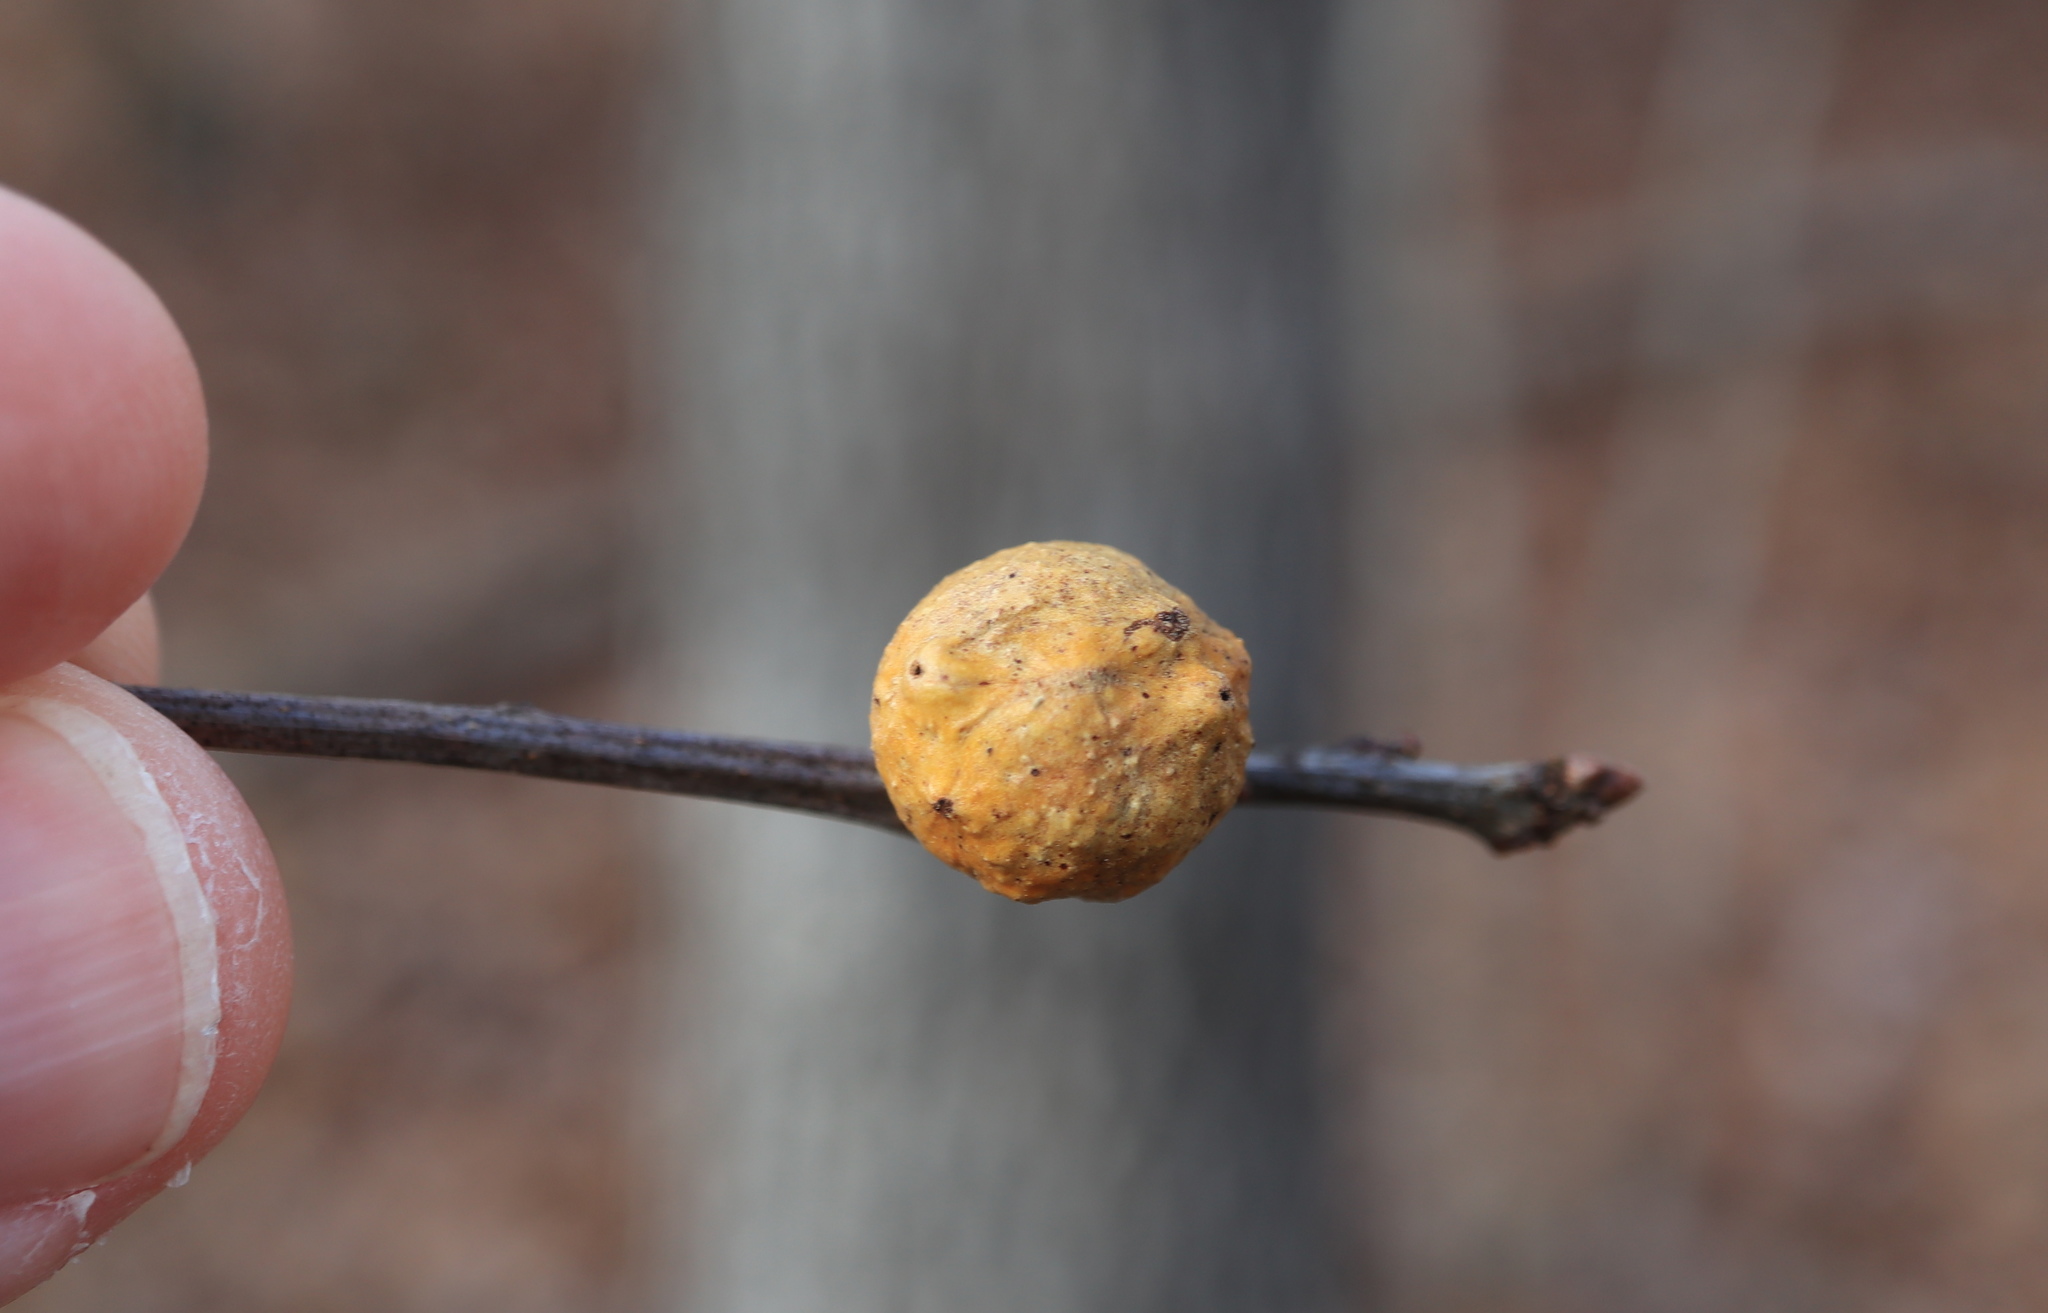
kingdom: Animalia
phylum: Arthropoda
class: Insecta
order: Hymenoptera
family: Cynipidae
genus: Disholcaspis
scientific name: Disholcaspis quercusglobulus
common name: Round bullet gall wasp
